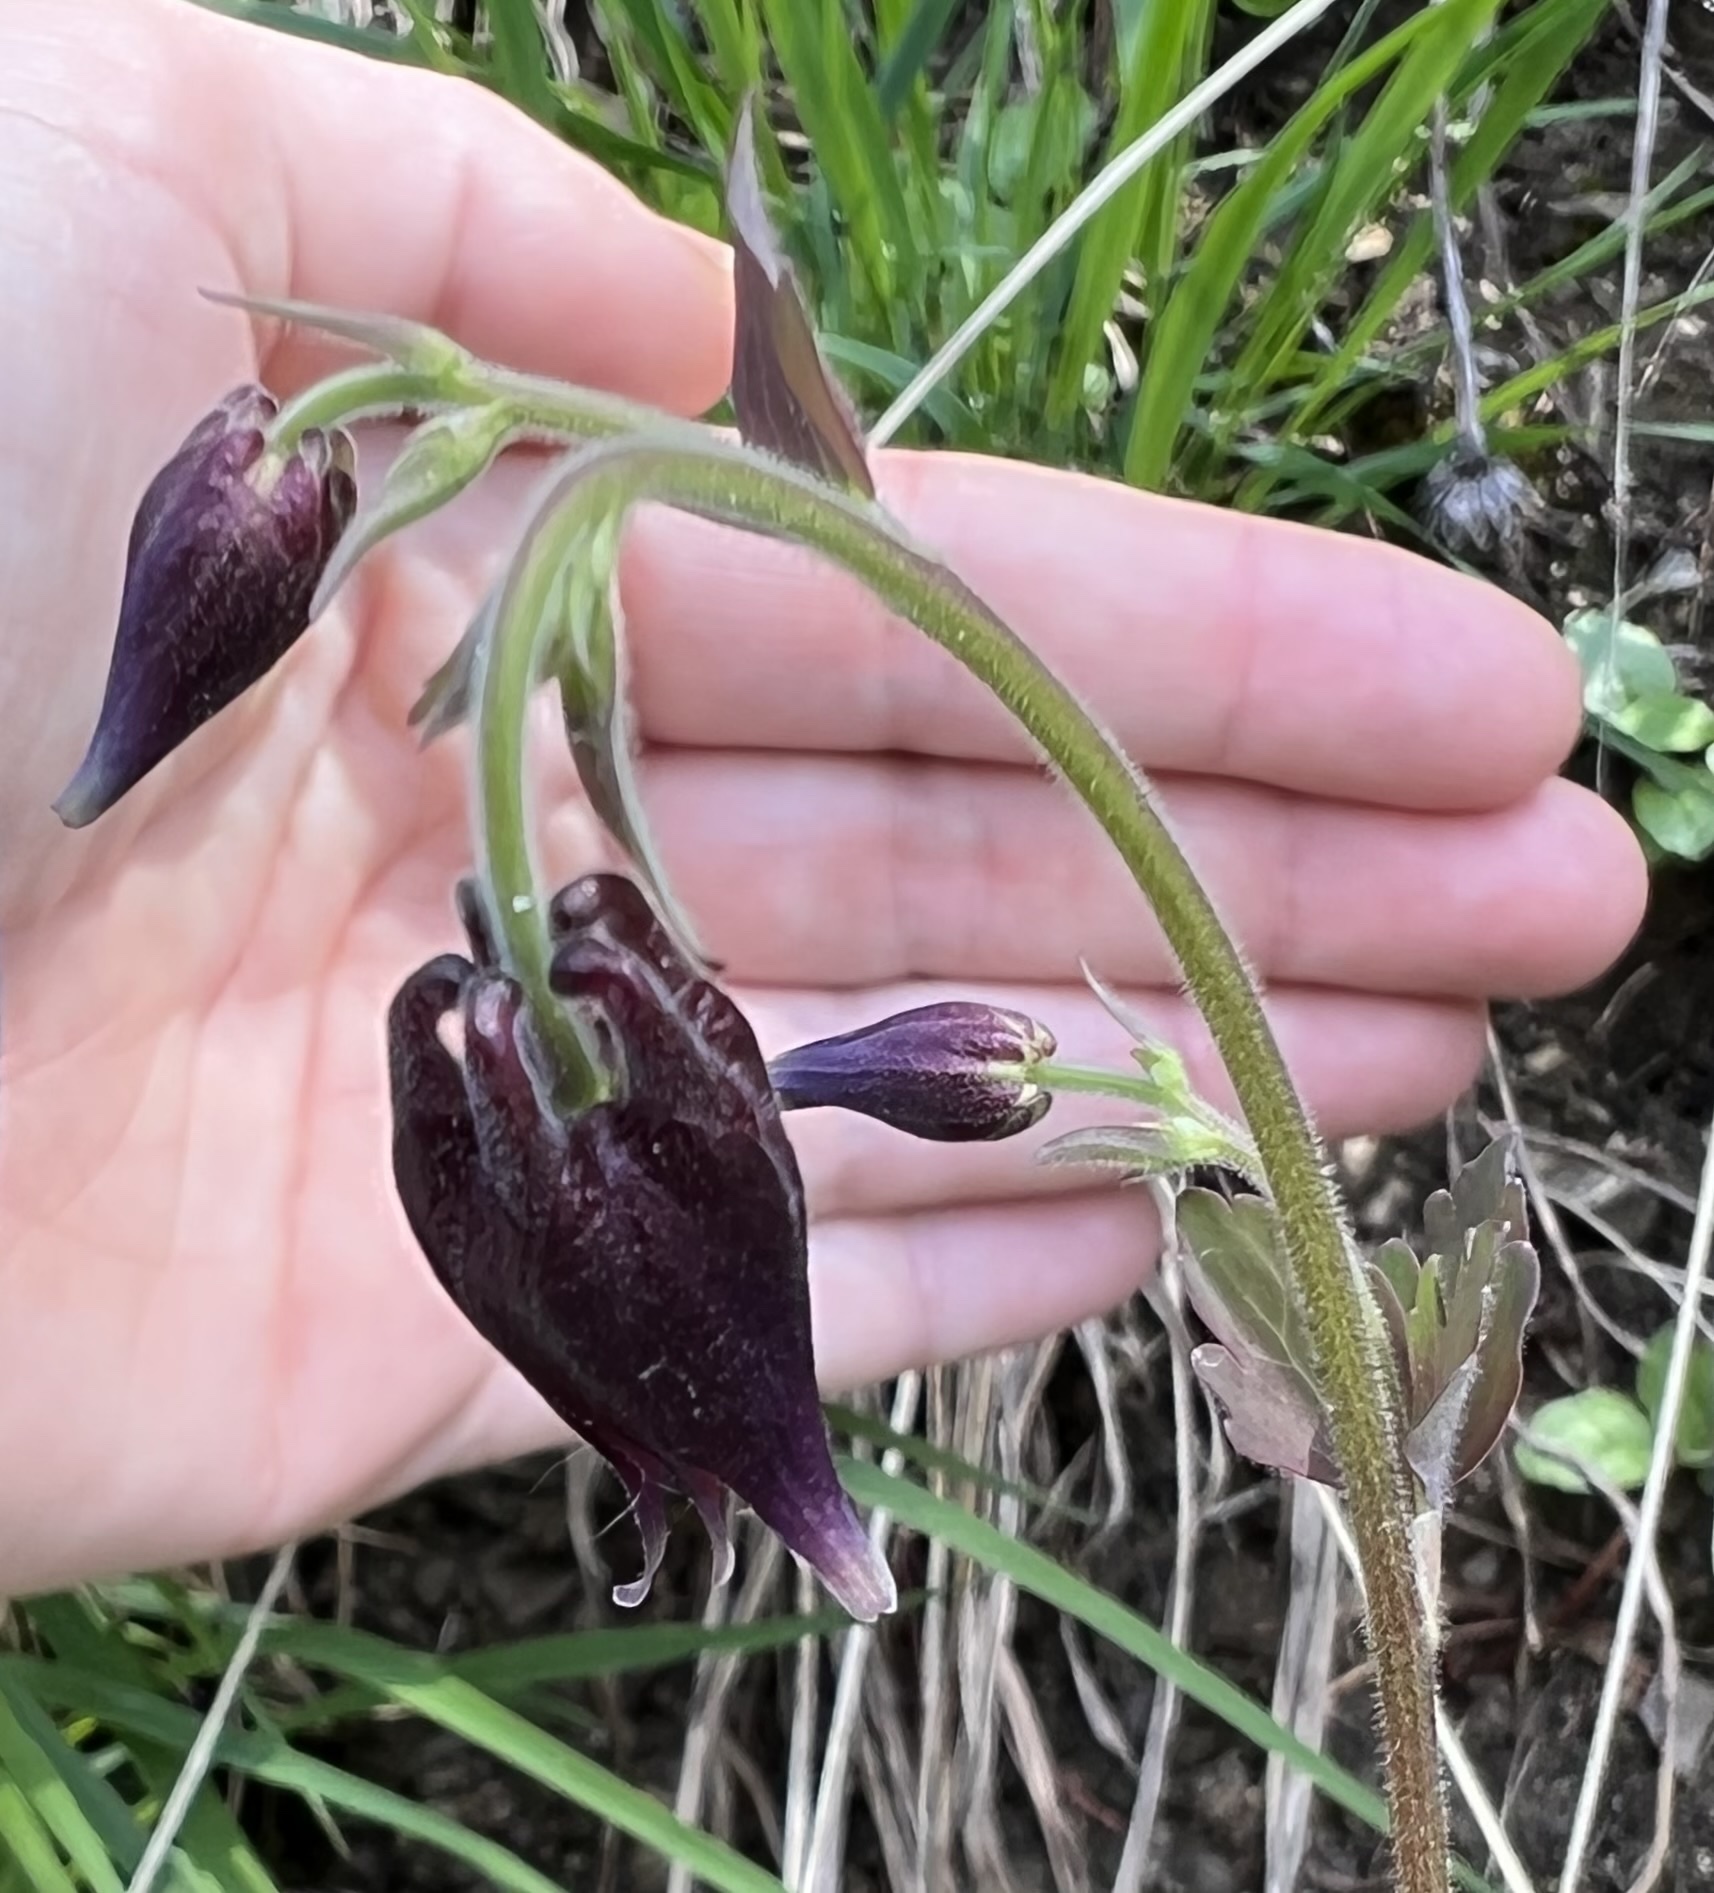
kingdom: Plantae
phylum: Tracheophyta
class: Magnoliopsida
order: Ranunculales
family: Ranunculaceae
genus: Aquilegia
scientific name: Aquilegia atrata
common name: Dark columbine
